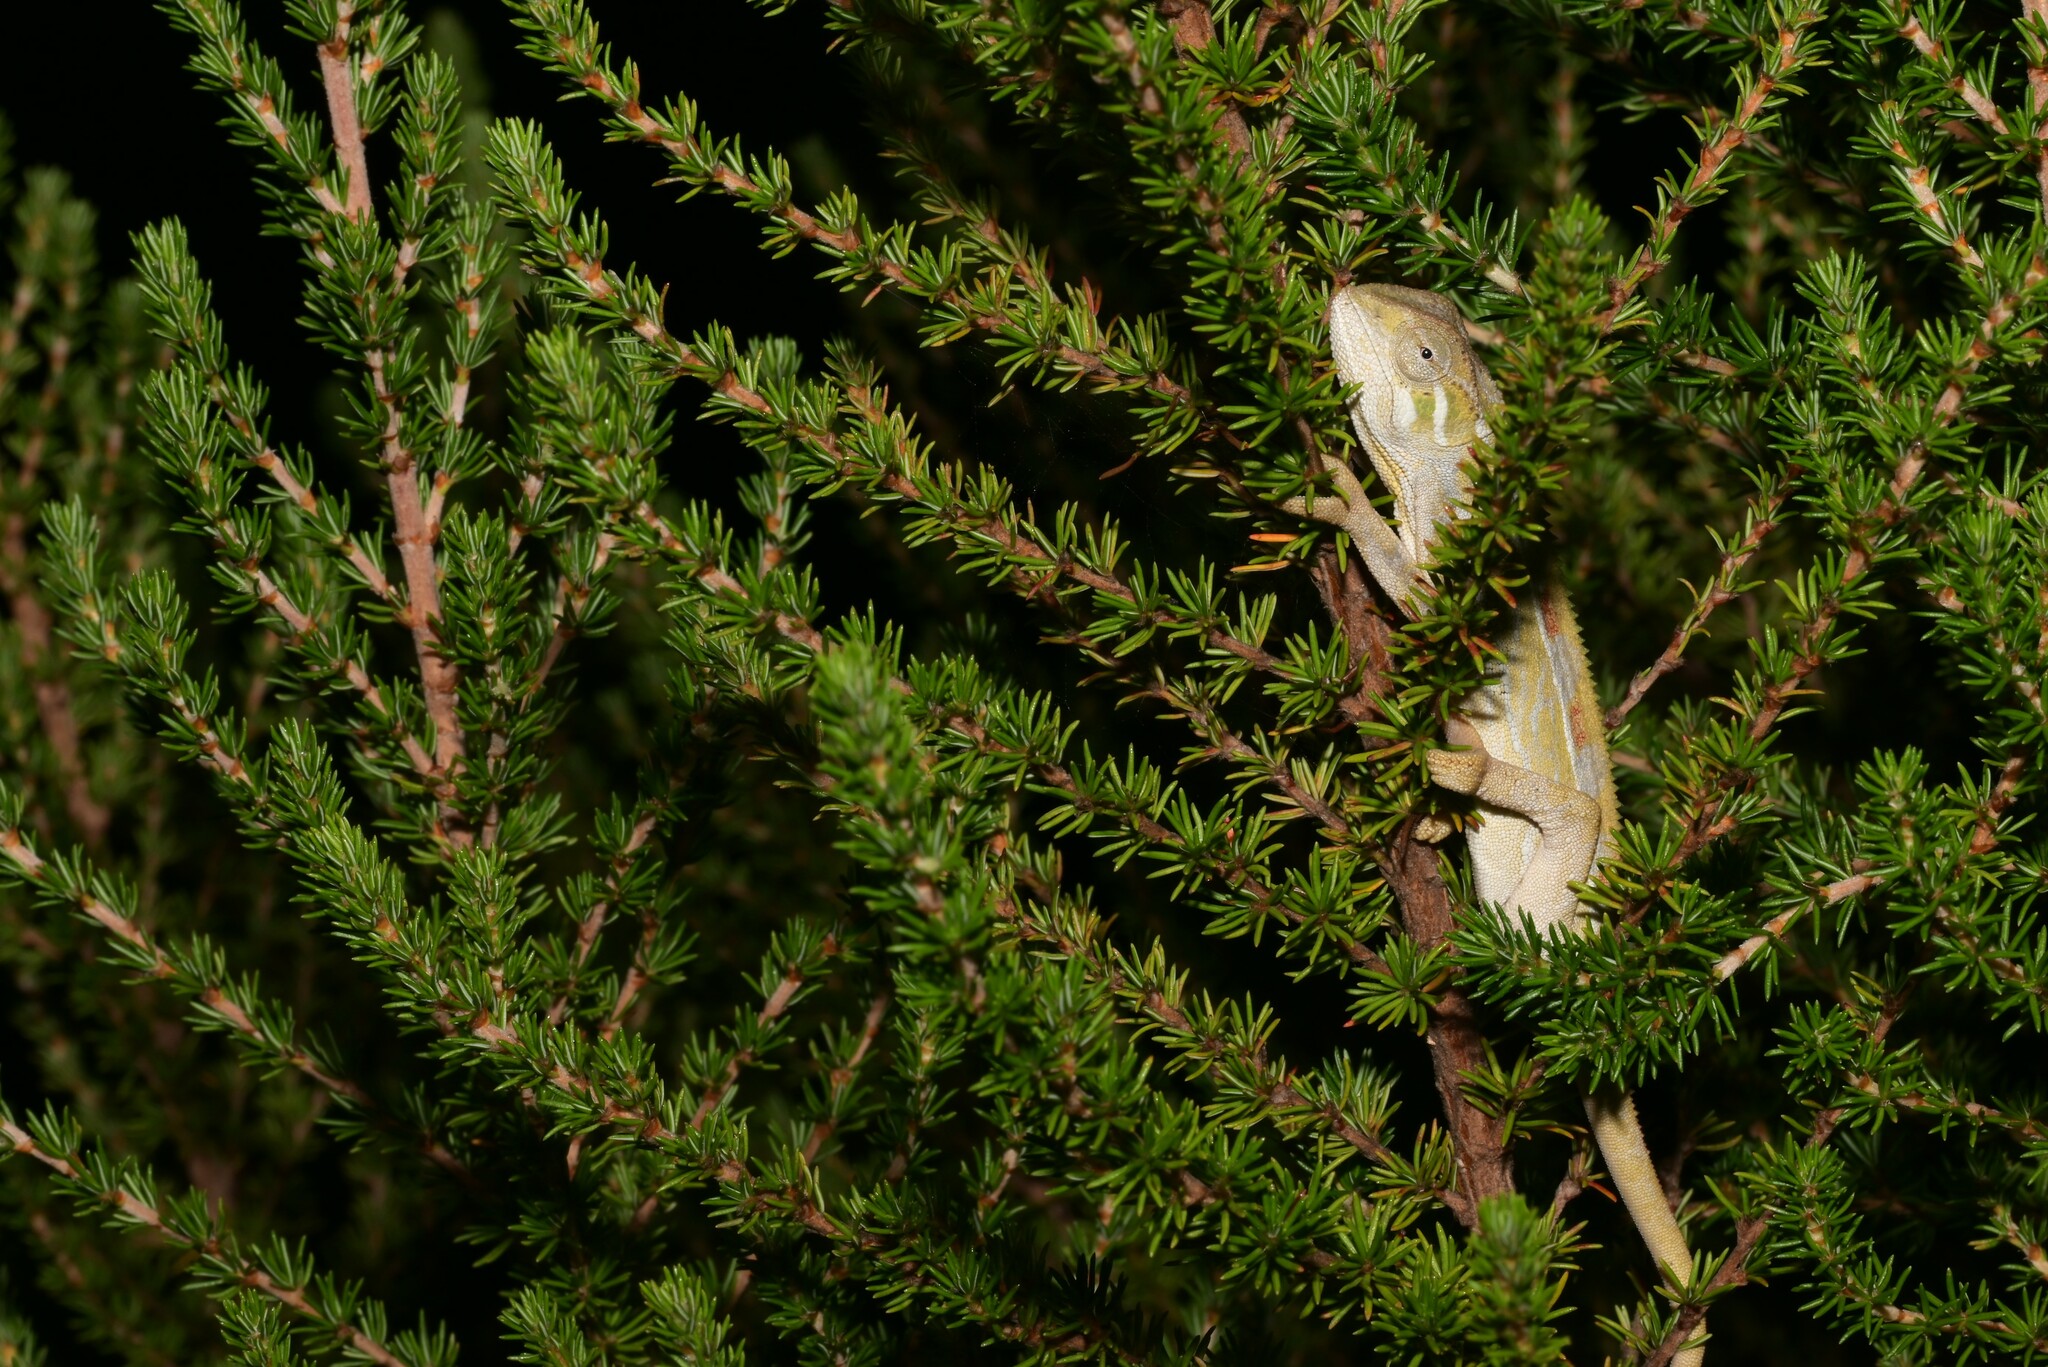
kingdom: Animalia
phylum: Chordata
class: Squamata
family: Chamaeleonidae
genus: Trioceros
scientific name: Trioceros goetzei
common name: Ilolo chameleon
